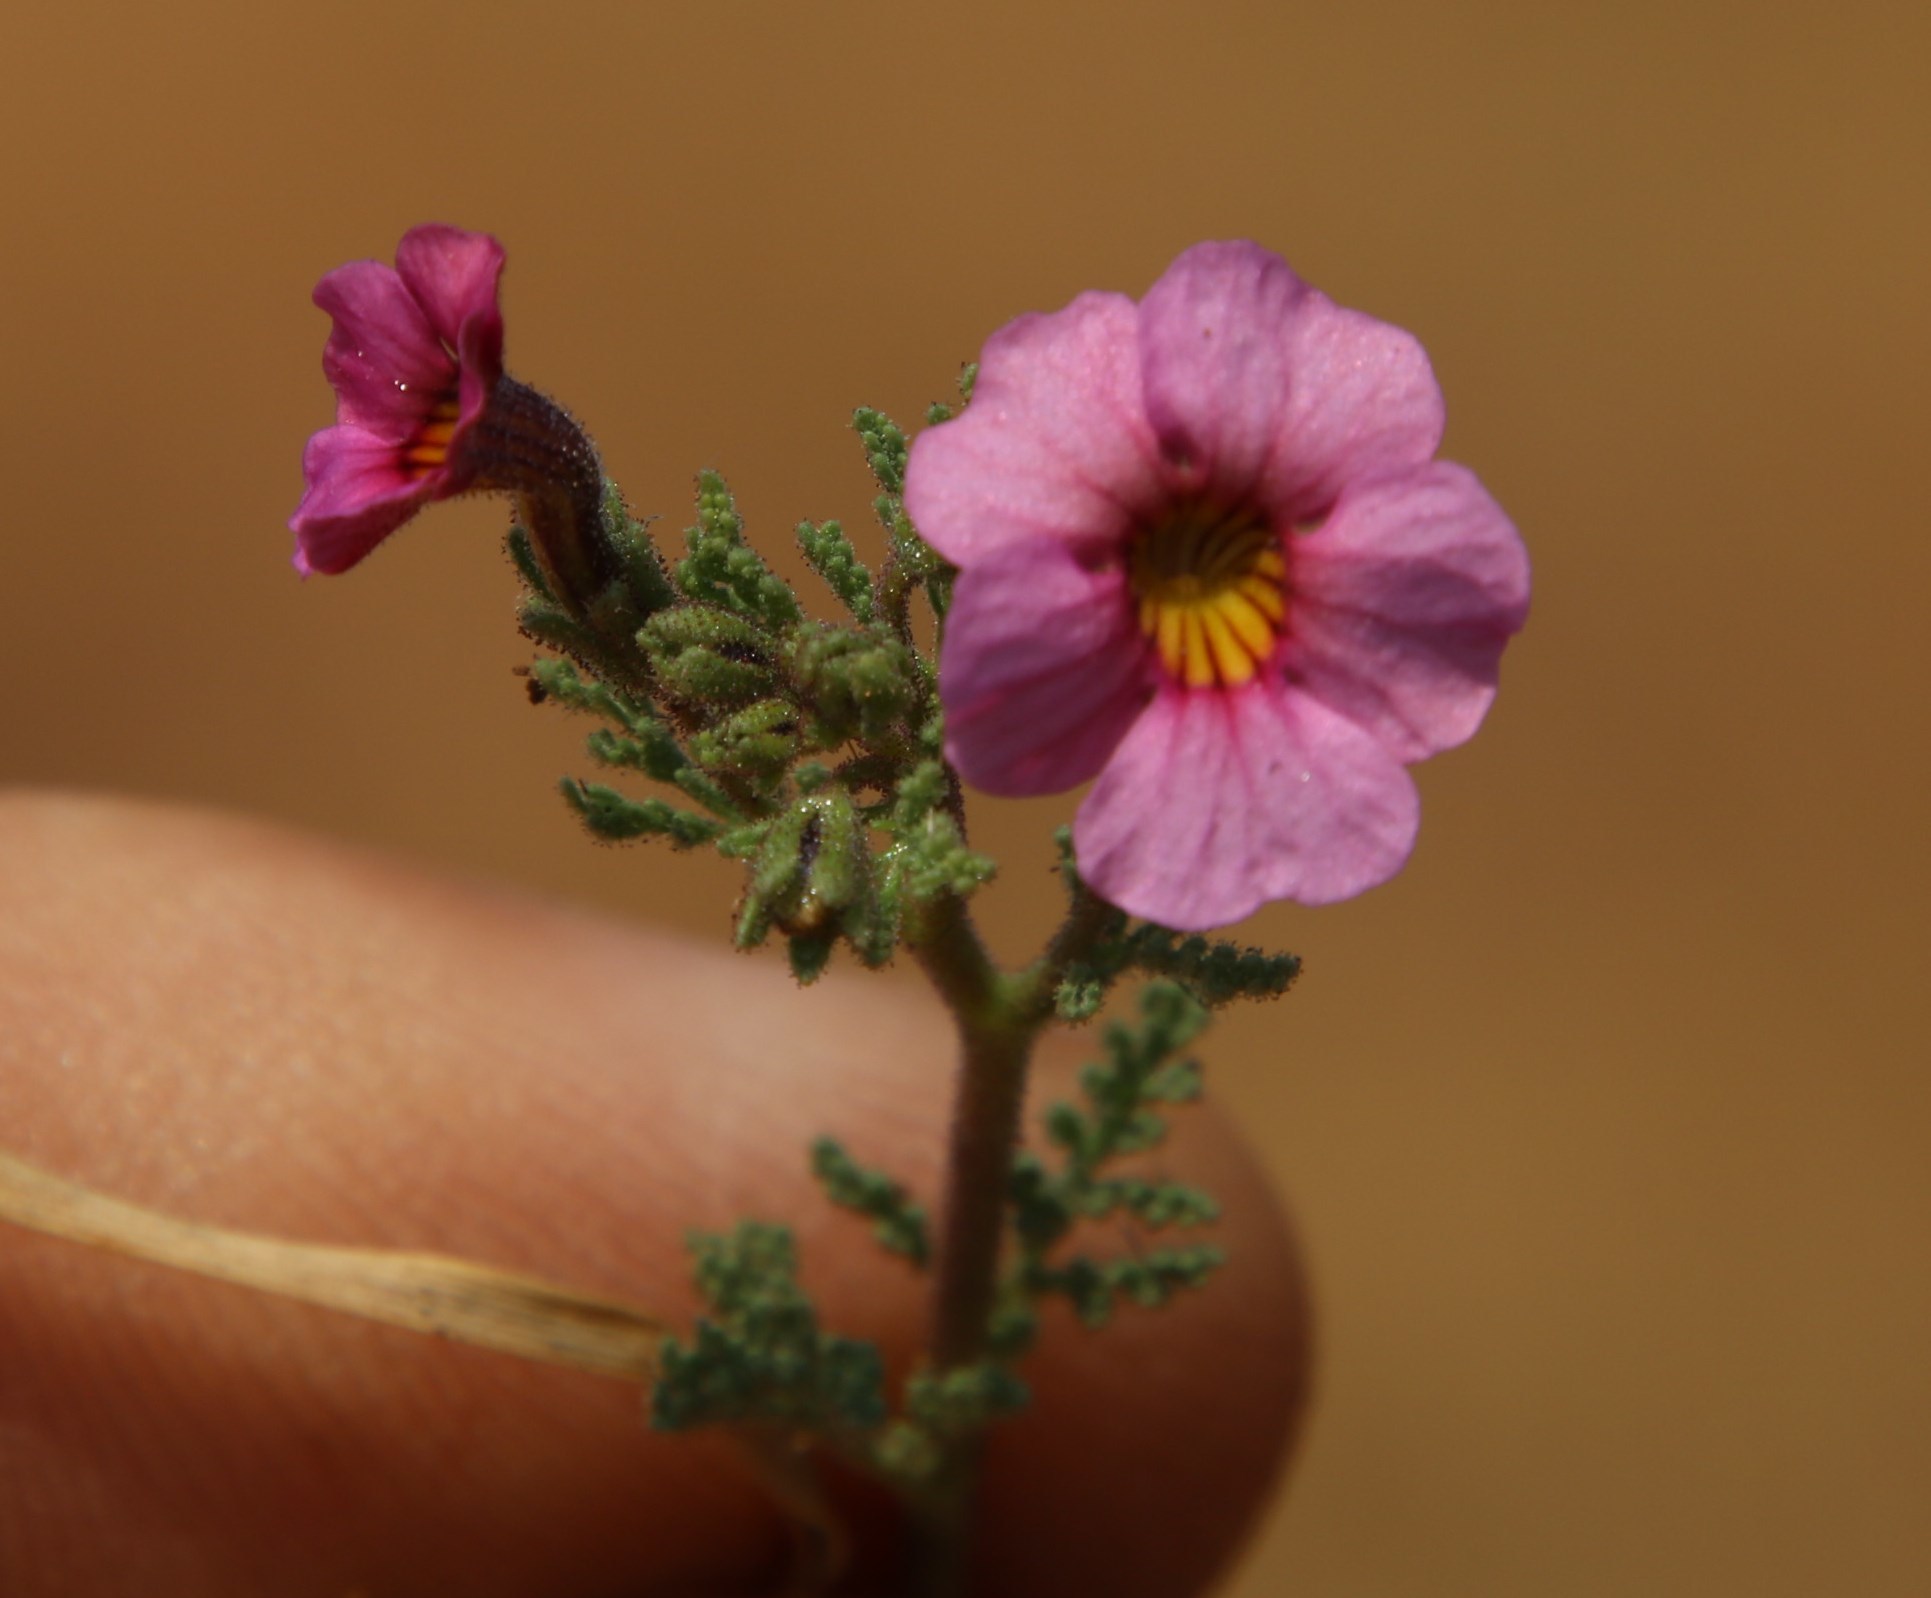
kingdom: Plantae
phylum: Tracheophyta
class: Magnoliopsida
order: Lamiales
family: Scrophulariaceae
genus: Jamesbrittenia
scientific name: Jamesbrittenia aurantiaca
